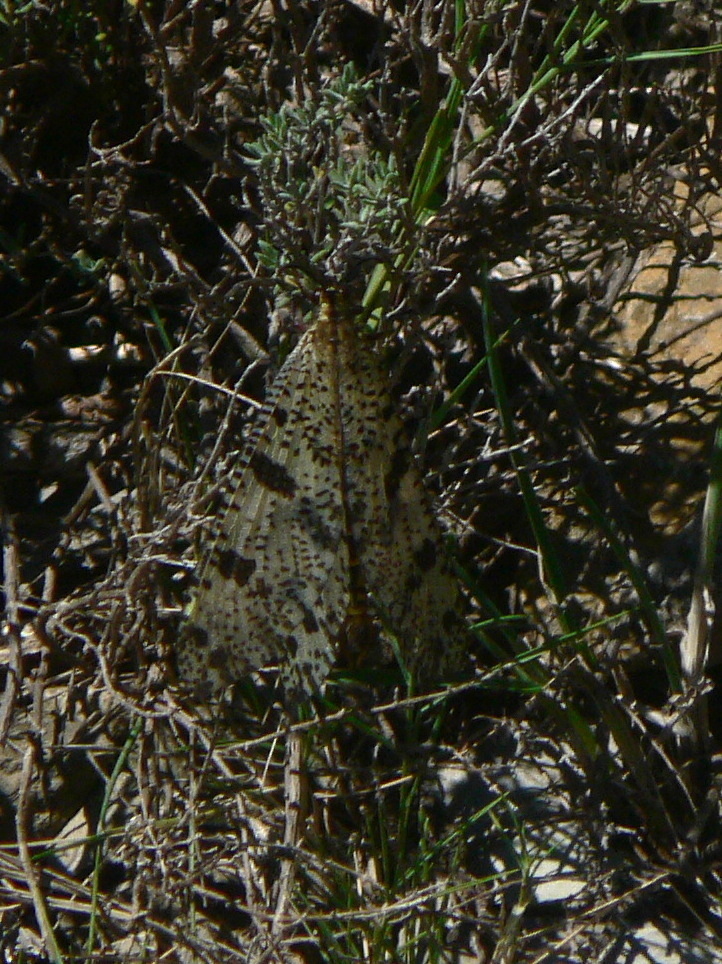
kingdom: Animalia
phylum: Arthropoda
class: Insecta
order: Neuroptera
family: Myrmeleontidae
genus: Palpares
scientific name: Palpares libelluloides
